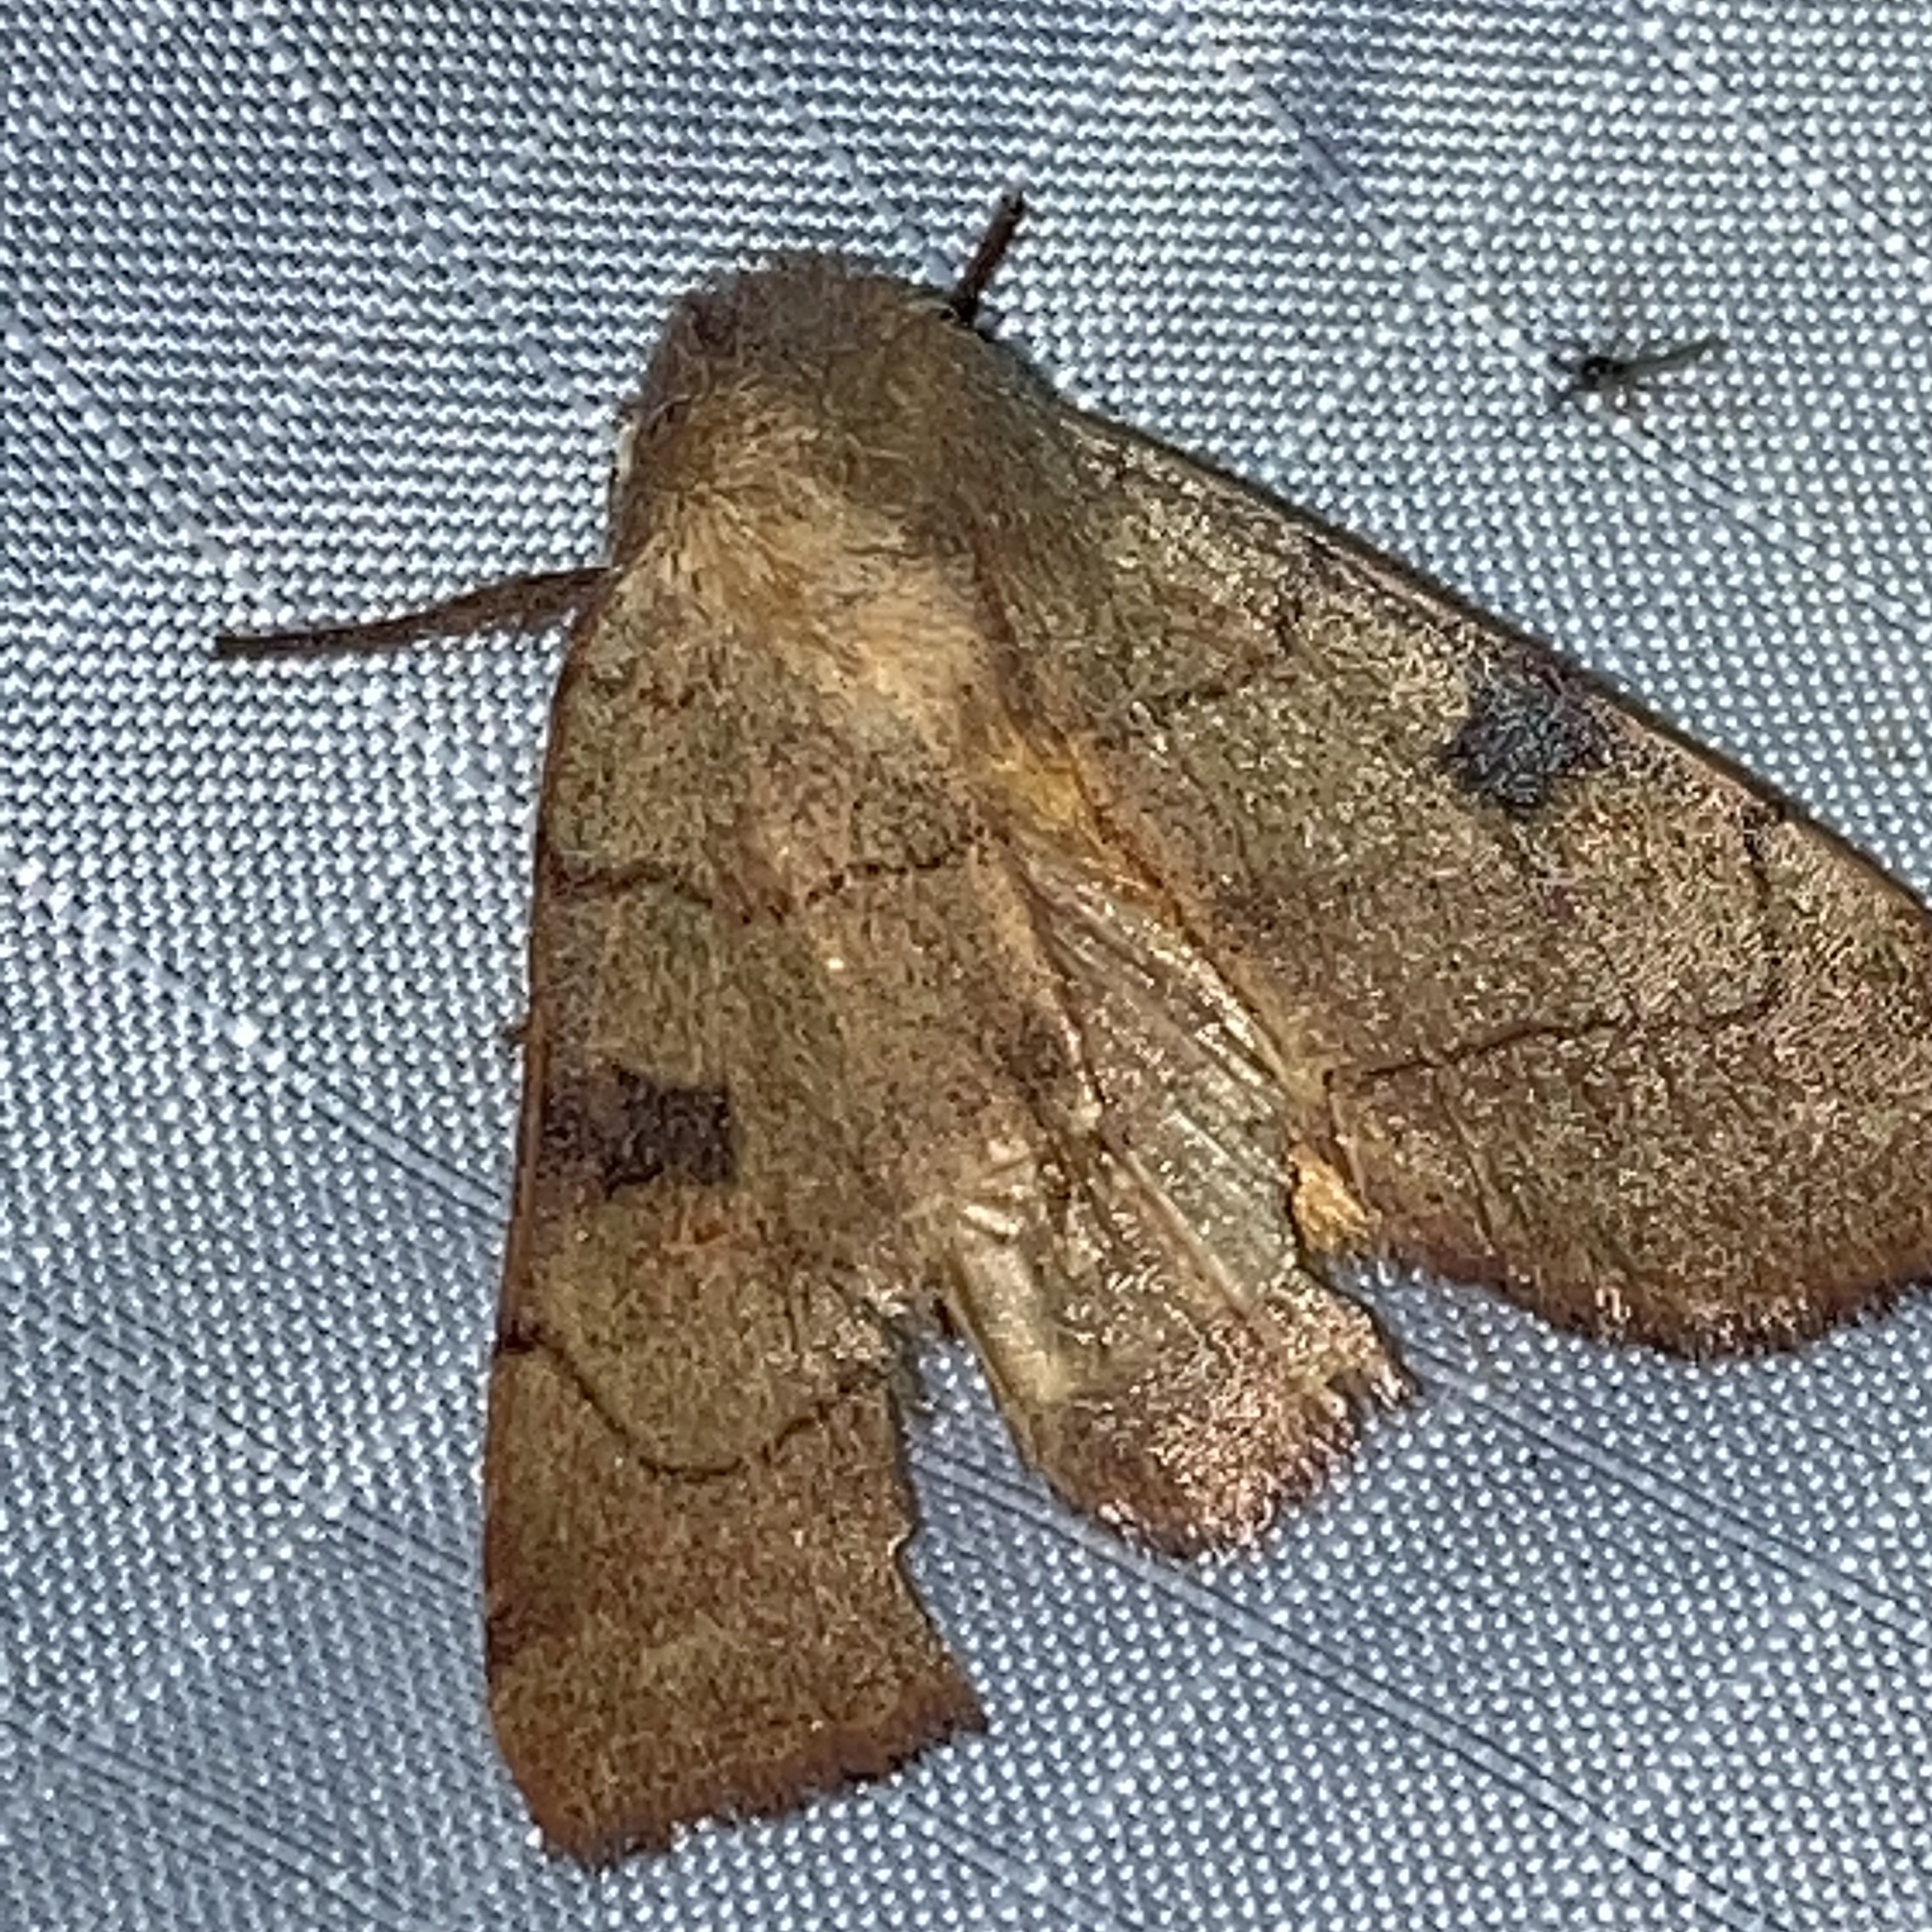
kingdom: Animalia
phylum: Arthropoda
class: Insecta
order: Lepidoptera
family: Noctuidae
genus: Choephora
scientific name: Choephora fungorum
